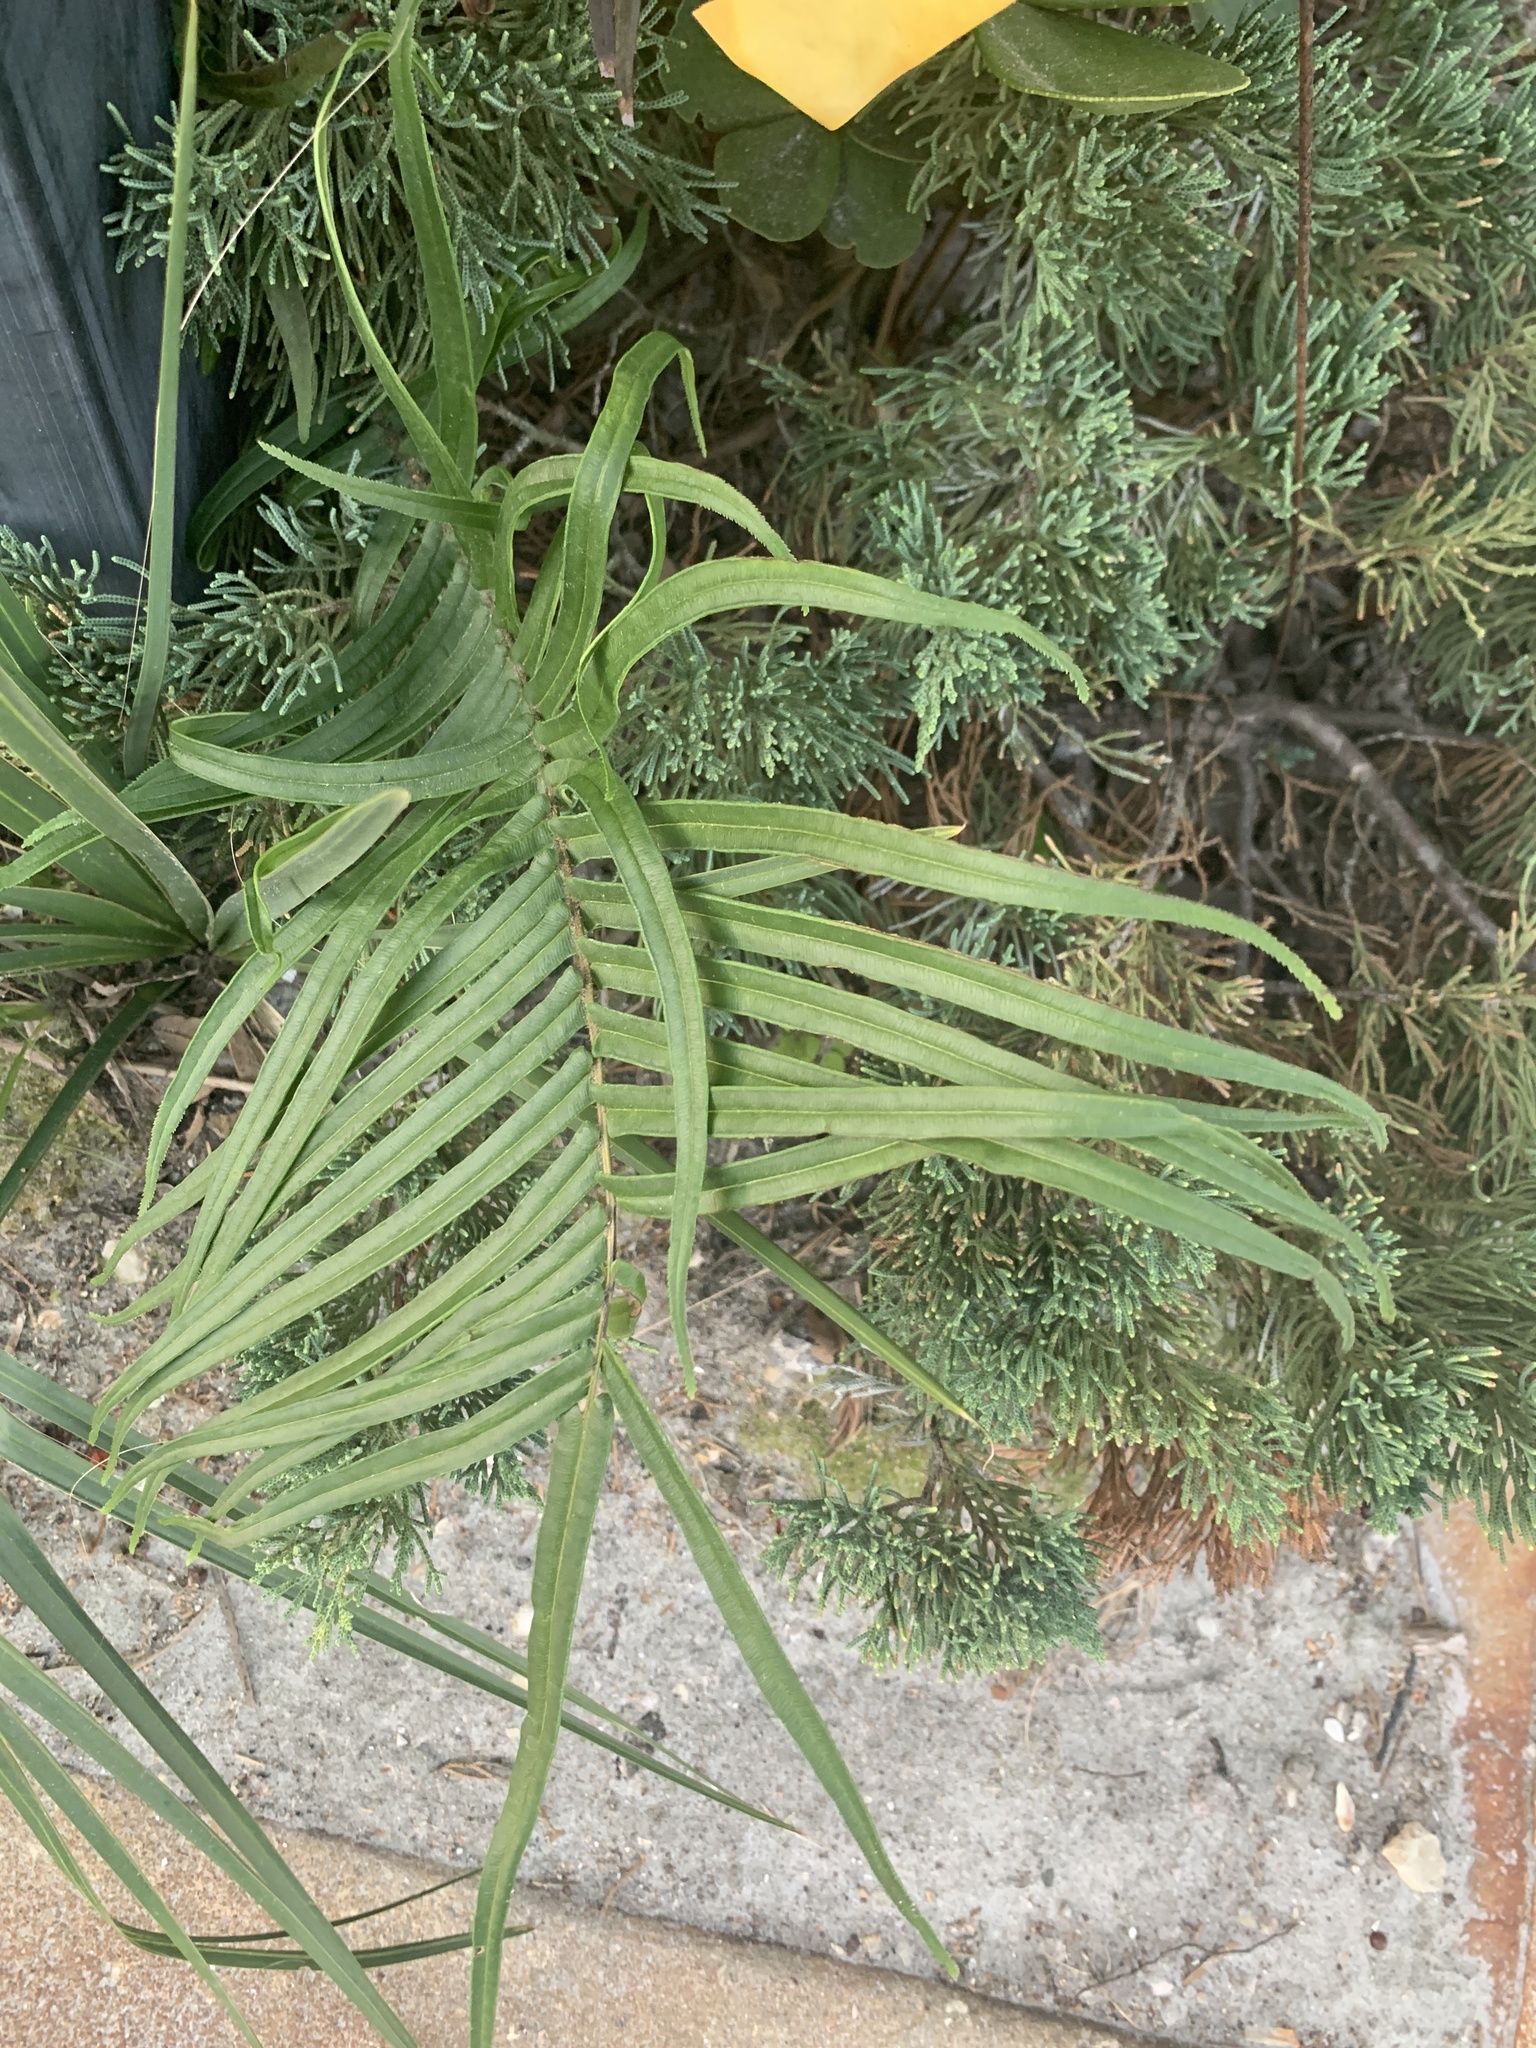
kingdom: Plantae
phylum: Tracheophyta
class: Polypodiopsida
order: Polypodiales
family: Pteridaceae
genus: Pteris
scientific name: Pteris vittata
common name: Ladder brake
